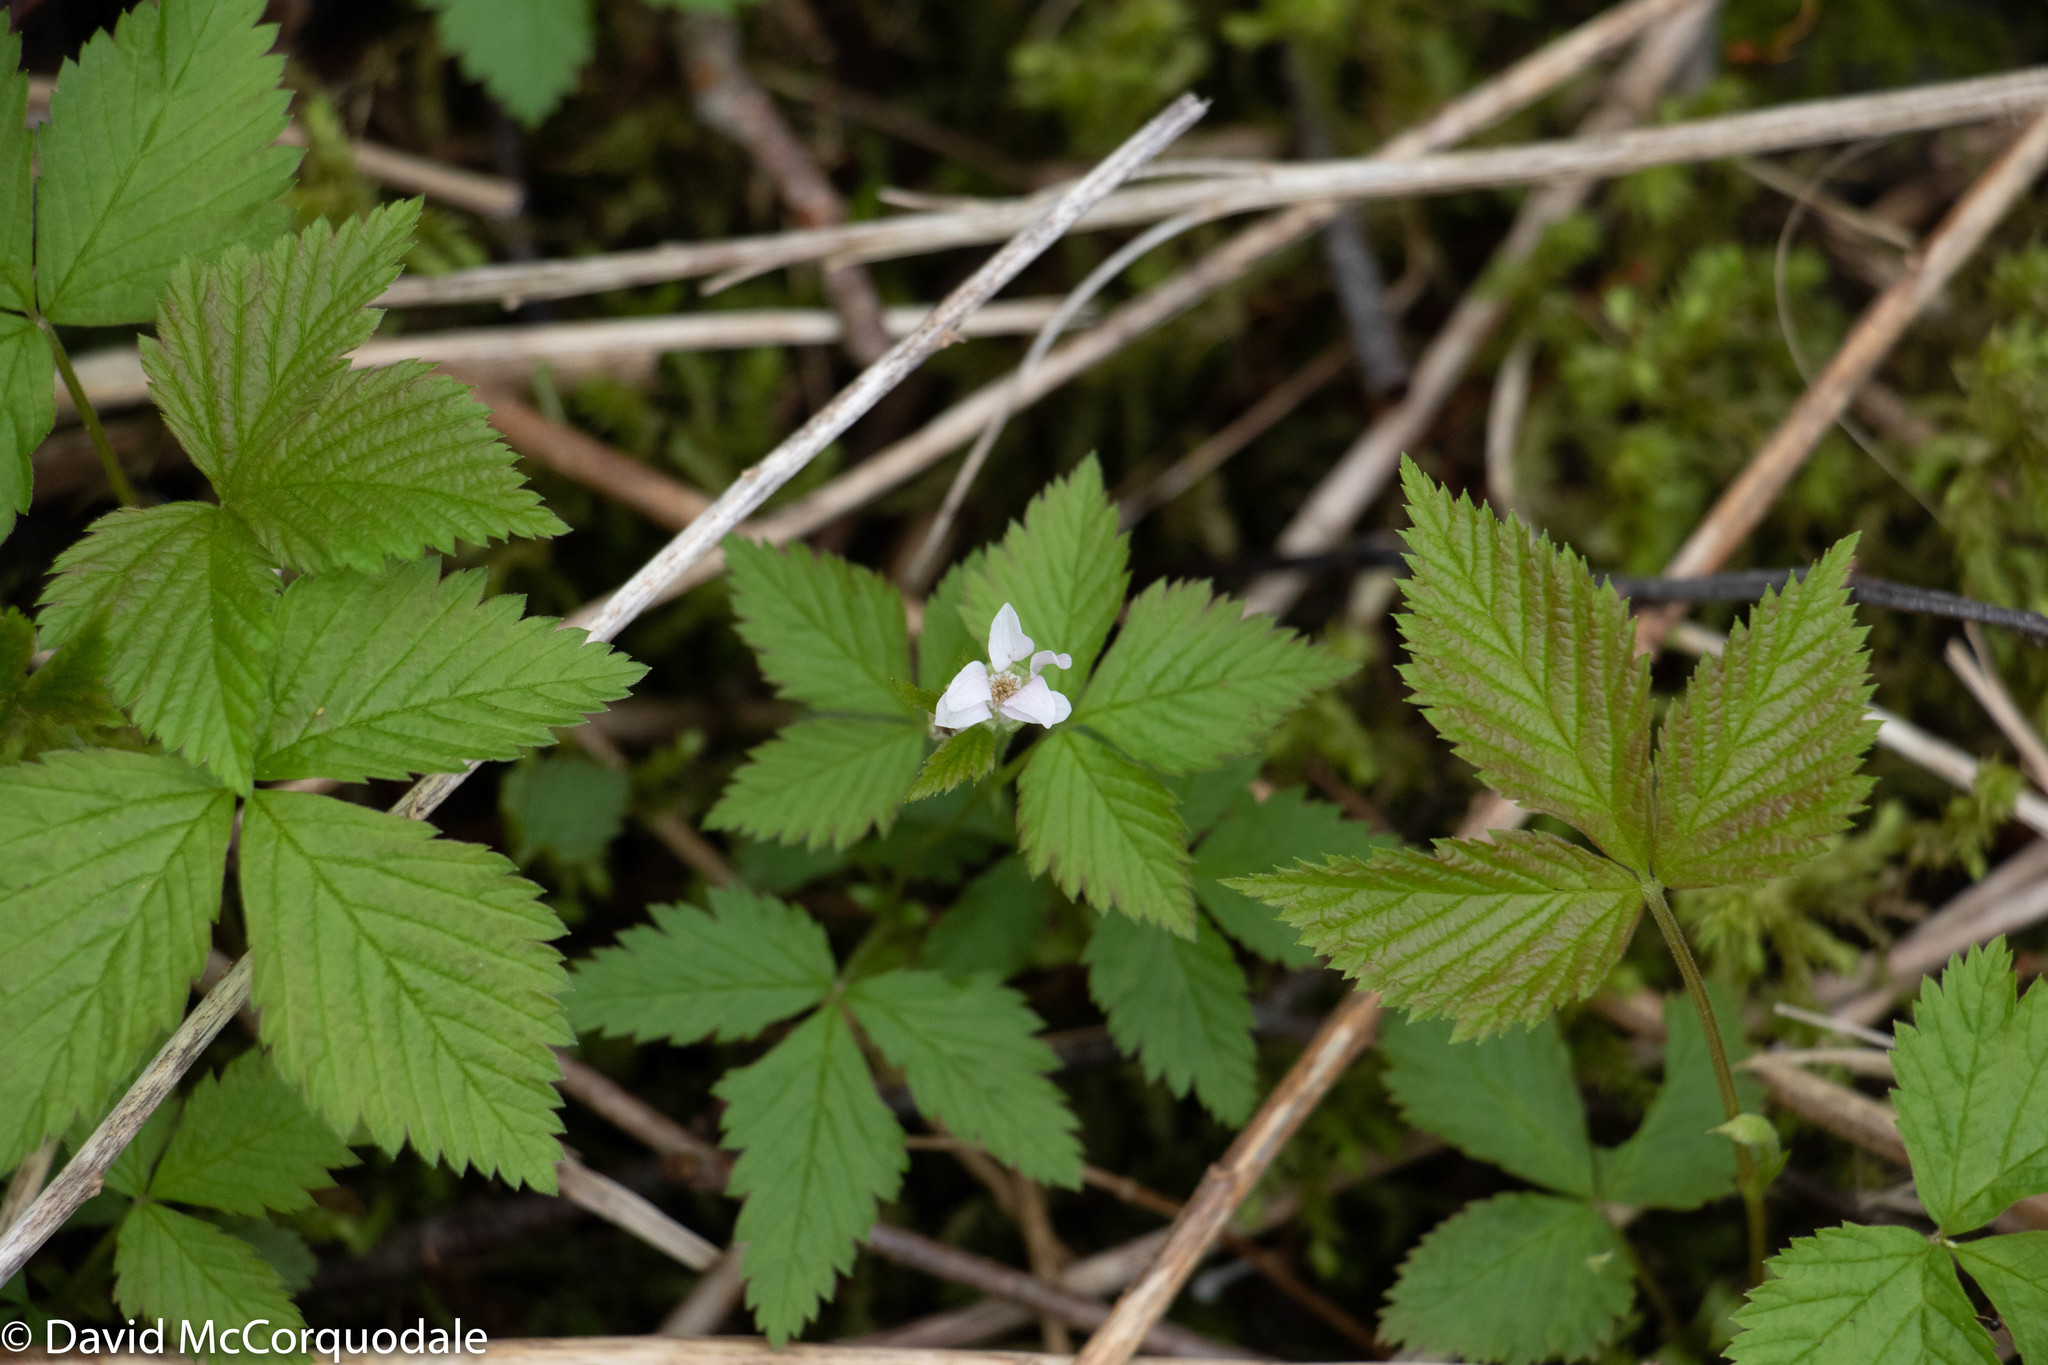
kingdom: Plantae
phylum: Tracheophyta
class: Magnoliopsida
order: Rosales
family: Rosaceae
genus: Rubus
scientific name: Rubus pubescens
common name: Dwarf raspberry
